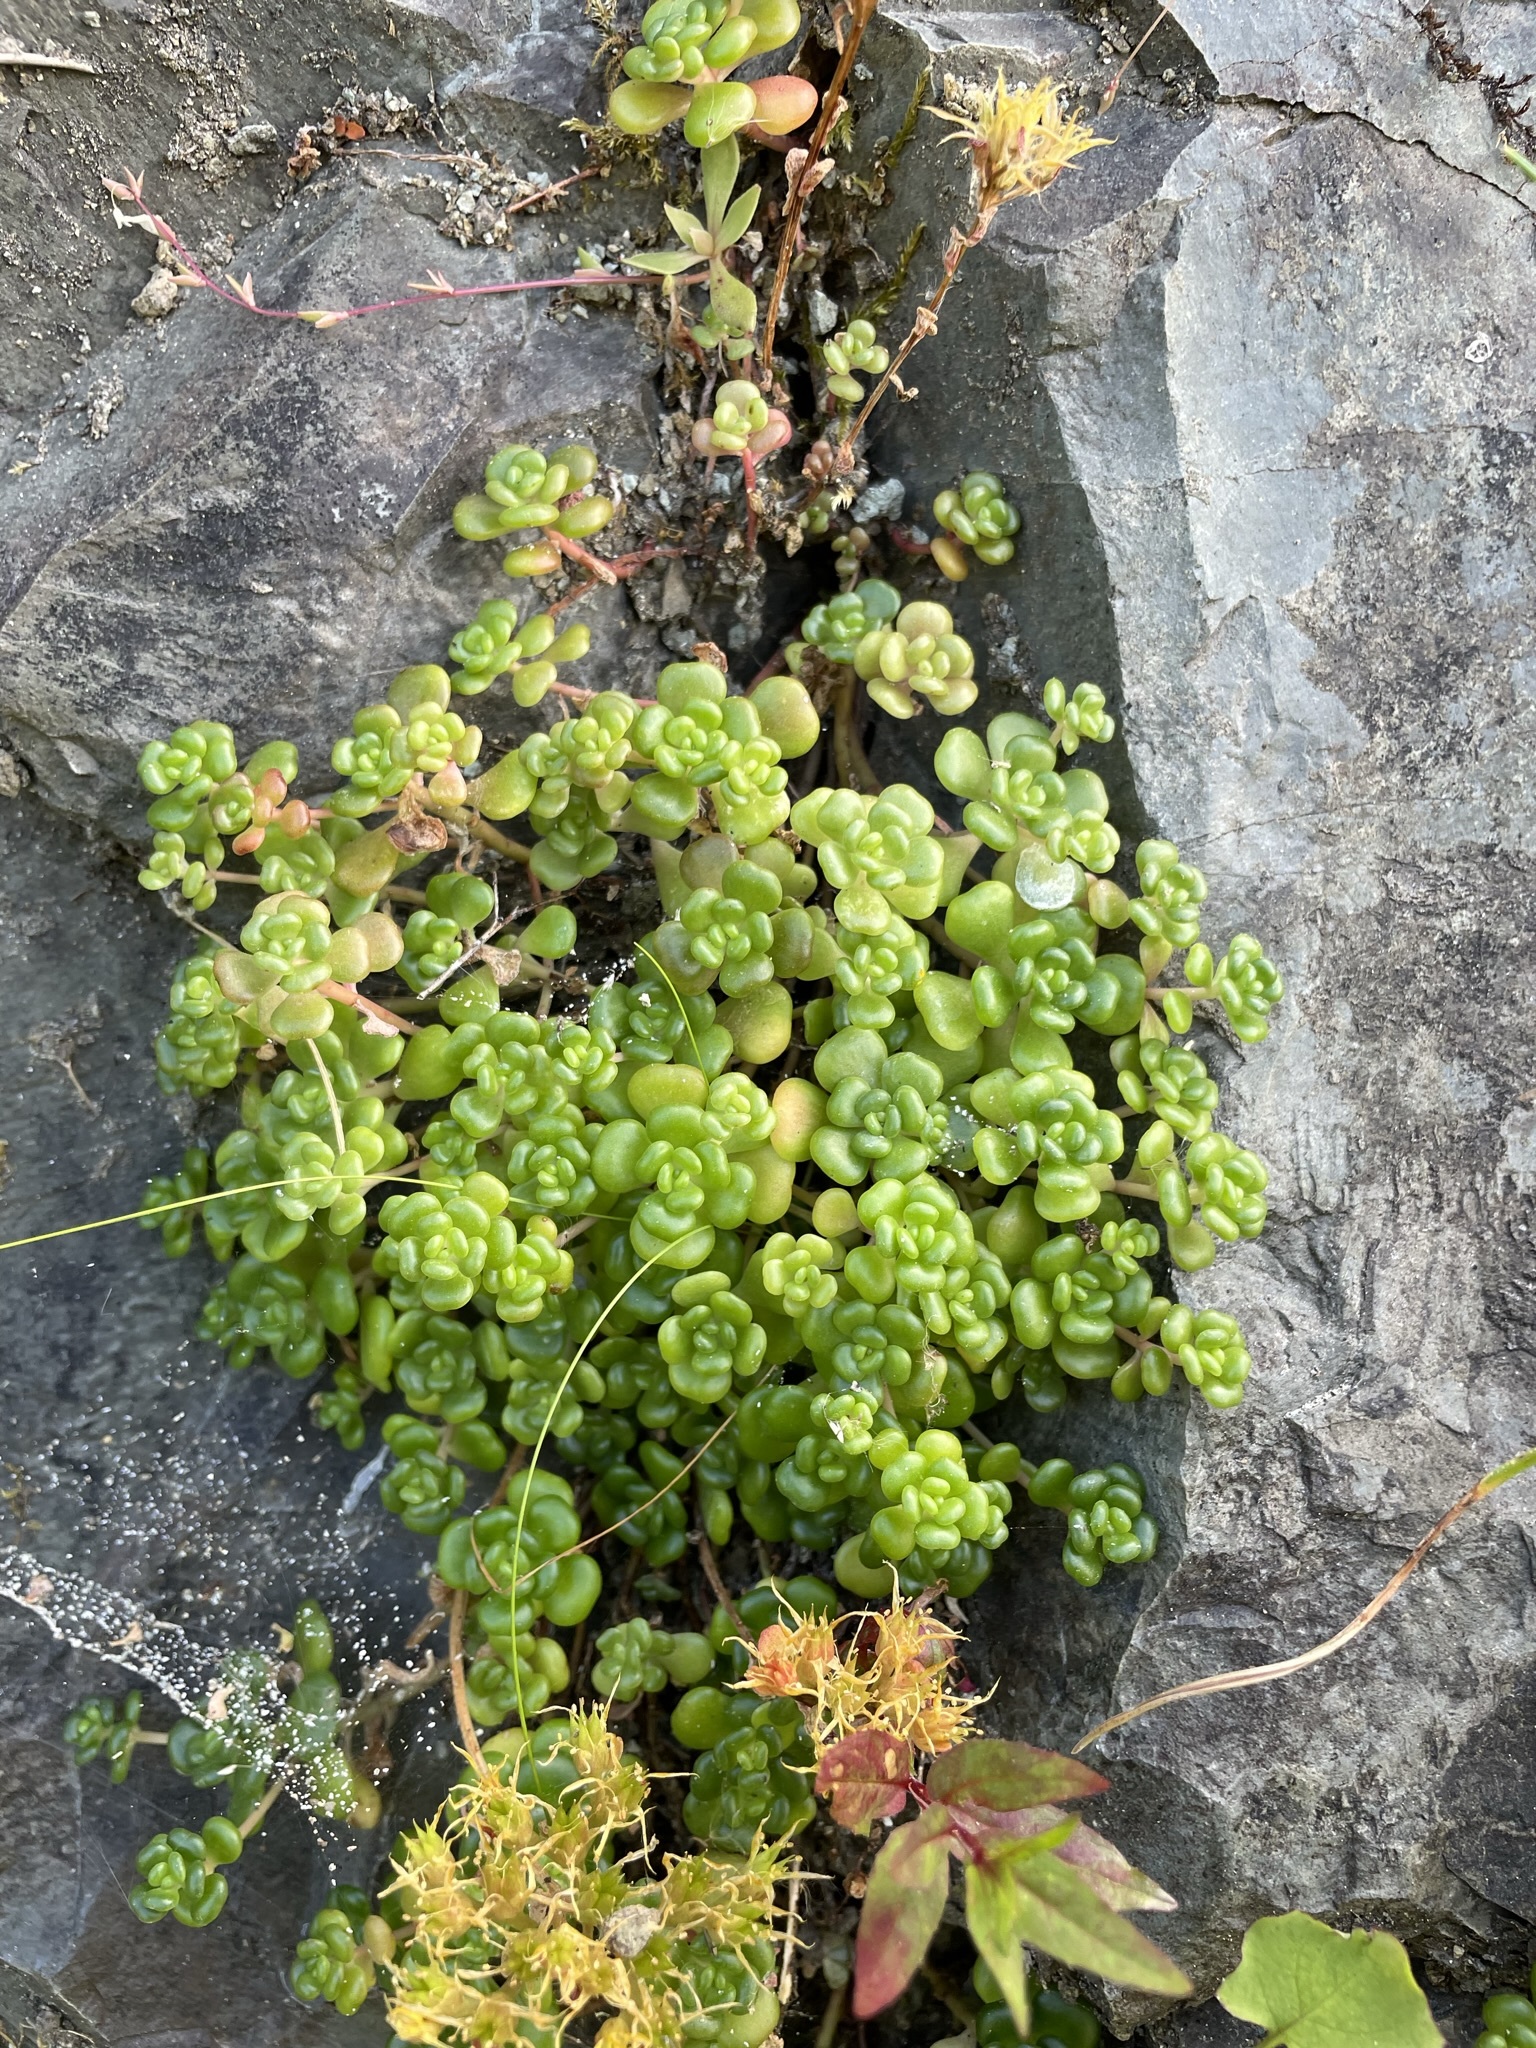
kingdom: Plantae
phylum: Tracheophyta
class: Magnoliopsida
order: Saxifragales
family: Crassulaceae
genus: Sedum
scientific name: Sedum oreganum
